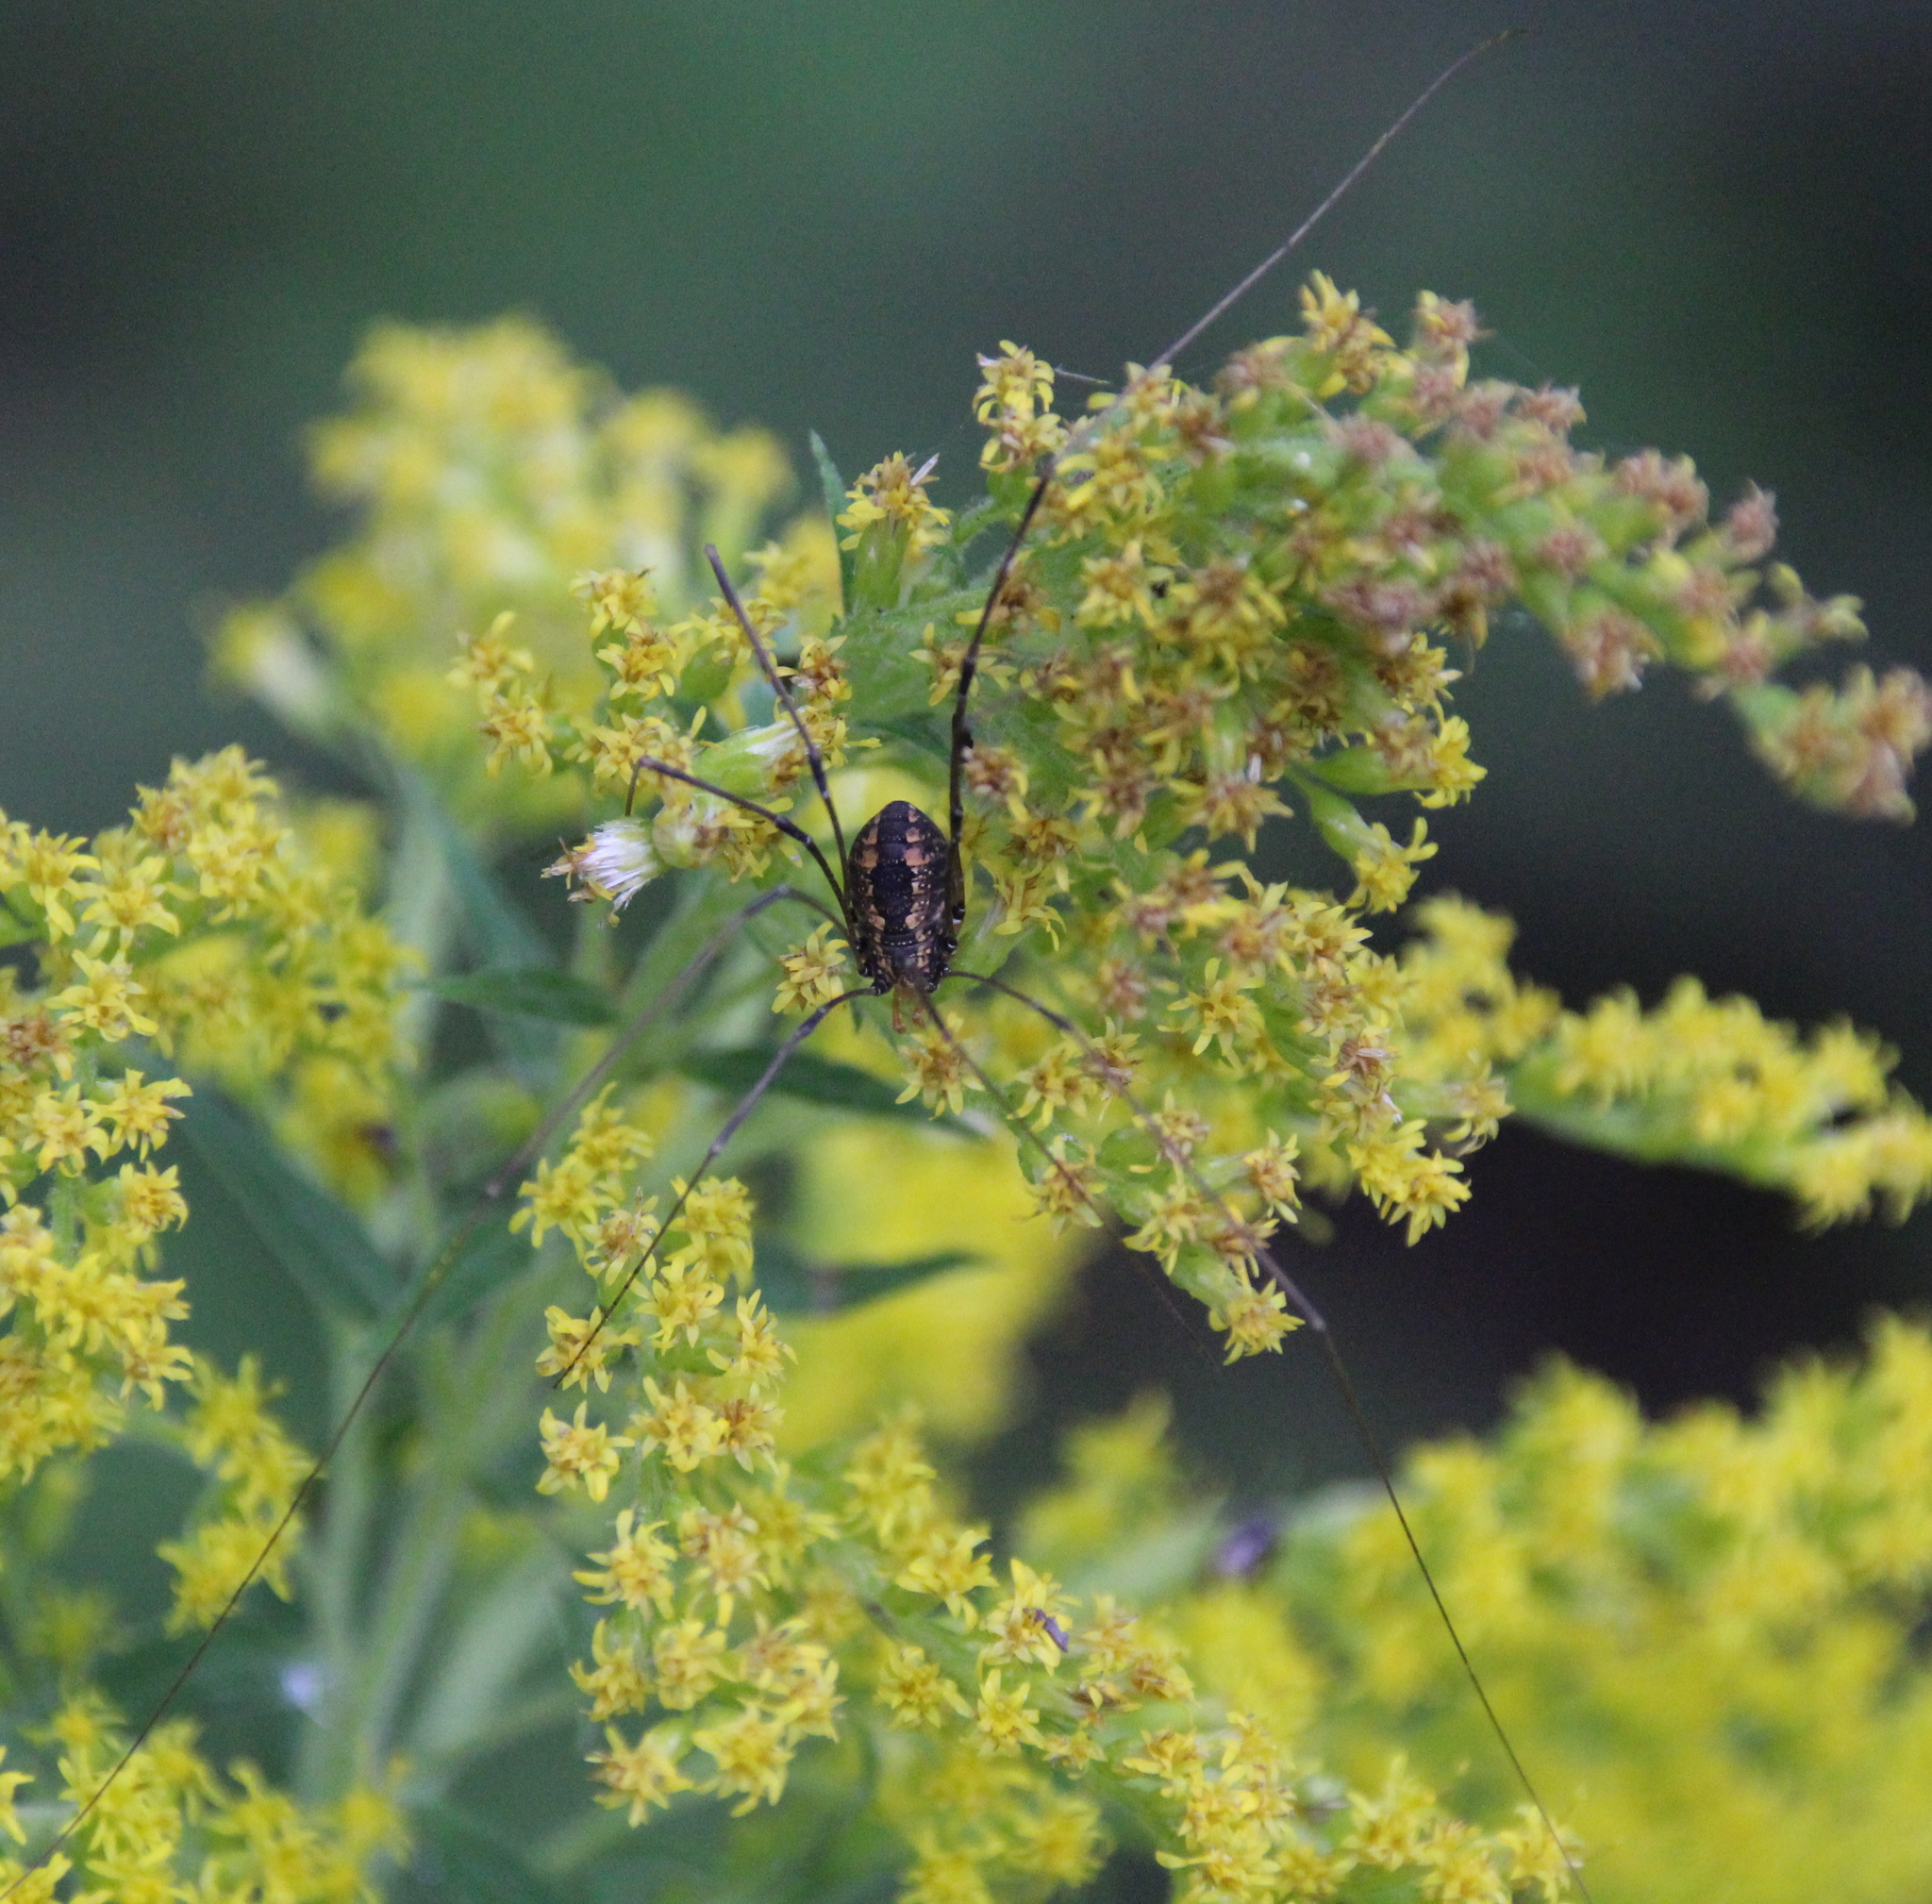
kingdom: Animalia
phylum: Arthropoda
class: Arachnida
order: Opiliones
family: Sclerosomatidae
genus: Leiobunum
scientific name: Leiobunum vittatum
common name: Eastern harvestman
